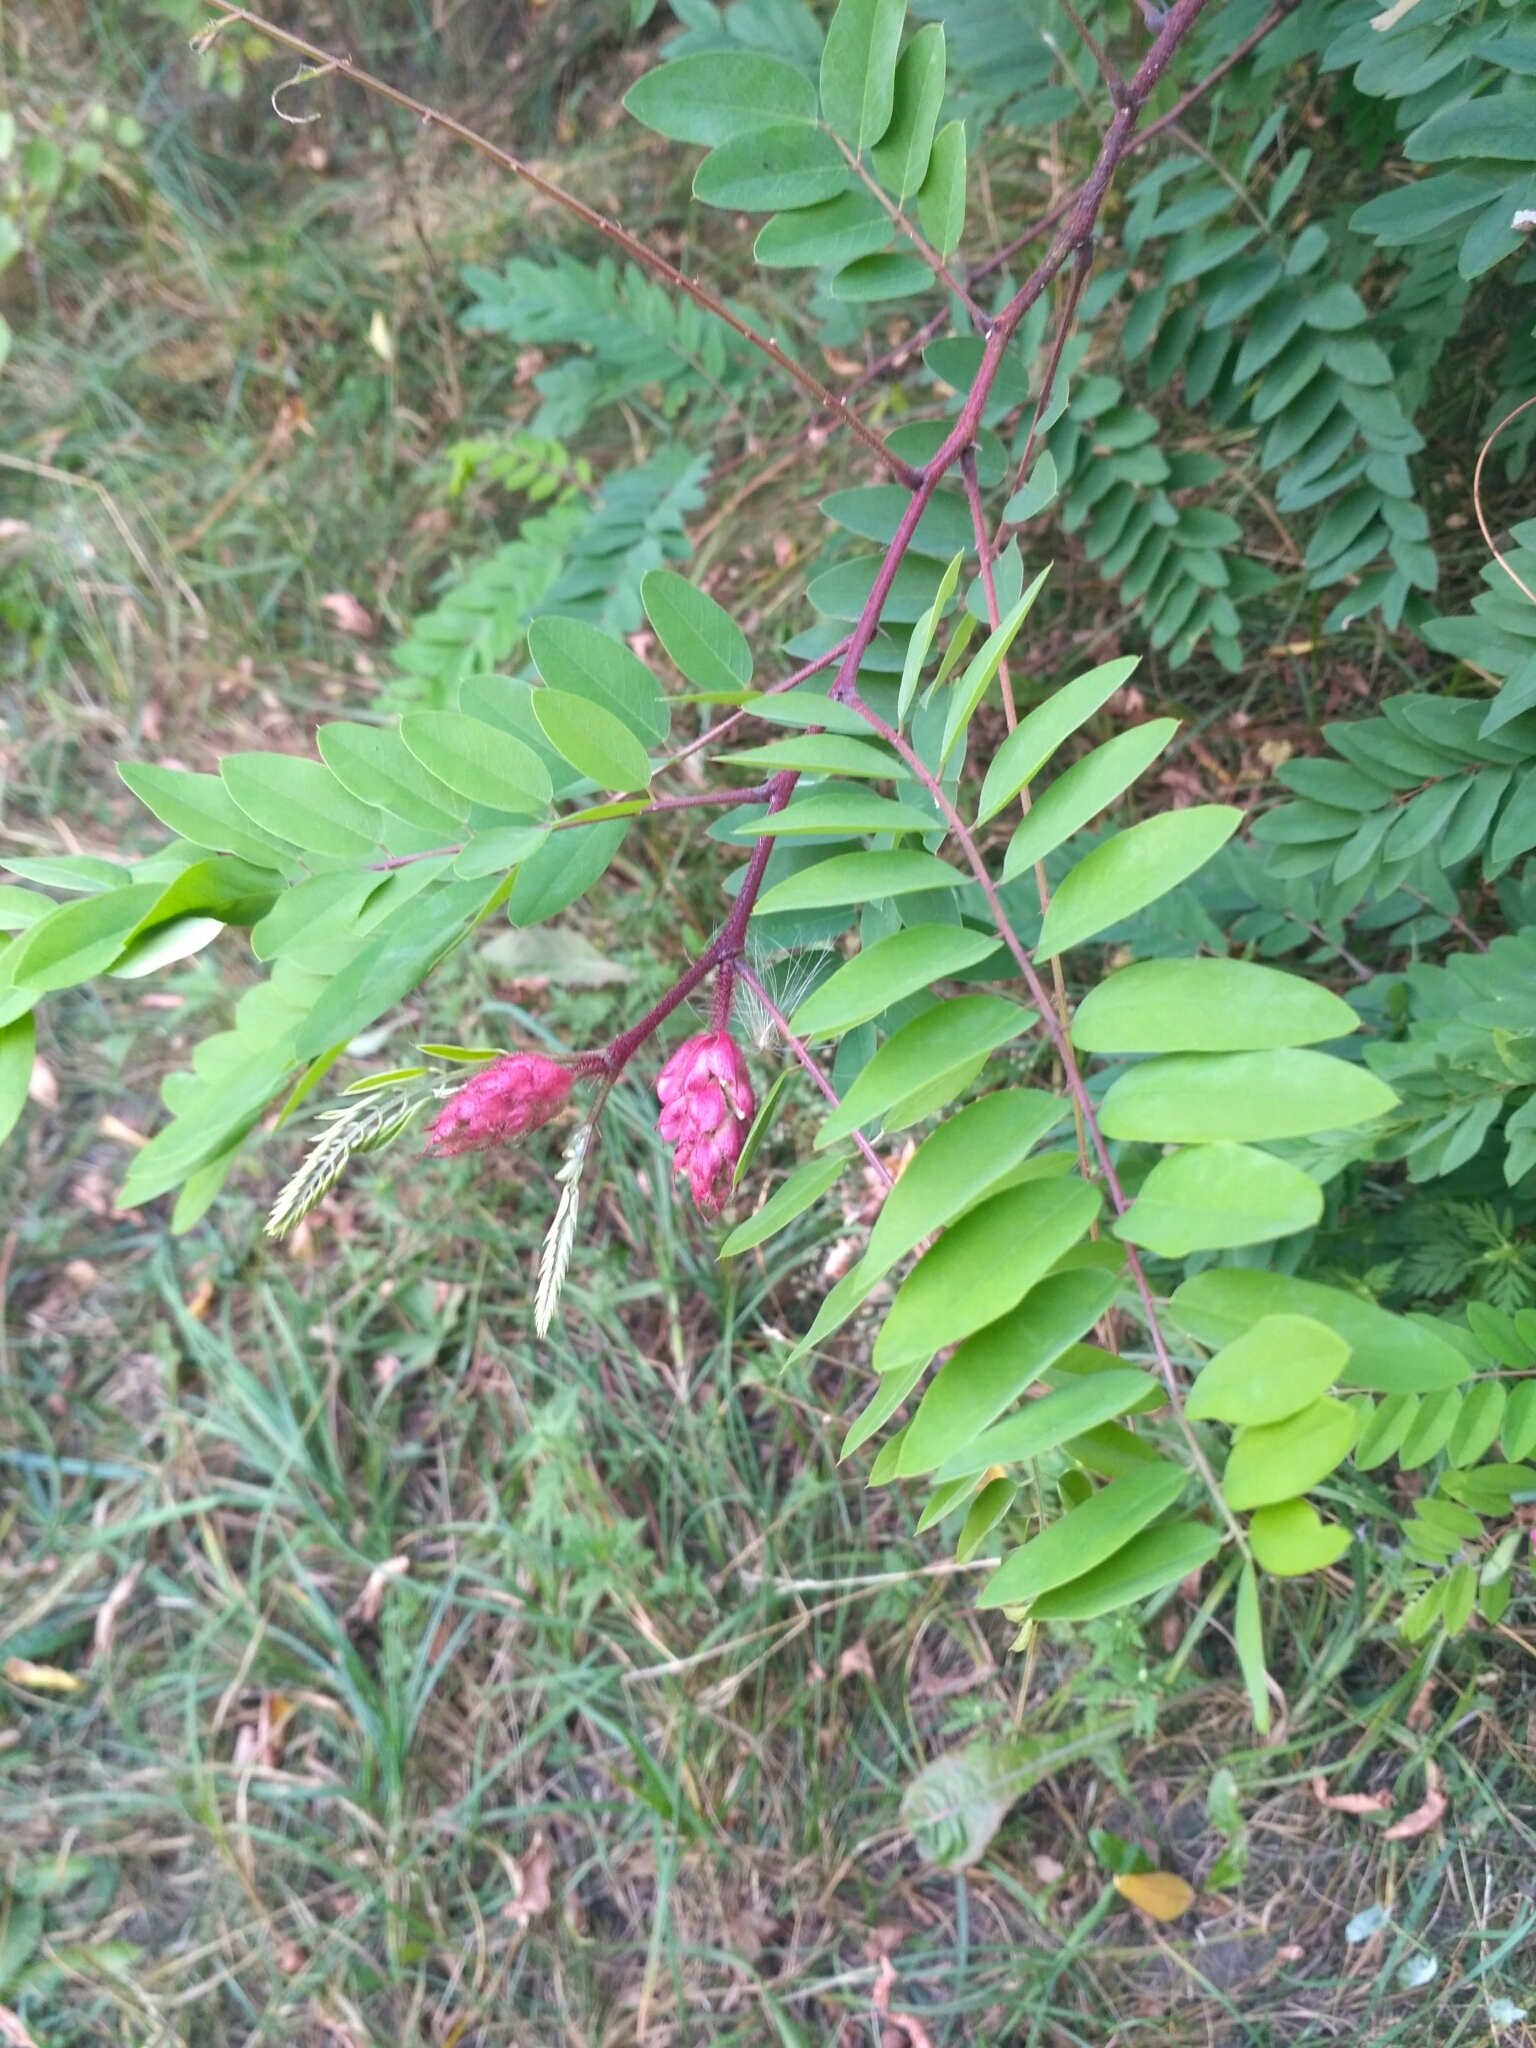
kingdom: Plantae
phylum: Tracheophyta
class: Magnoliopsida
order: Fabales
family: Fabaceae
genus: Robinia
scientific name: Robinia viscosa
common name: Clammy locust
